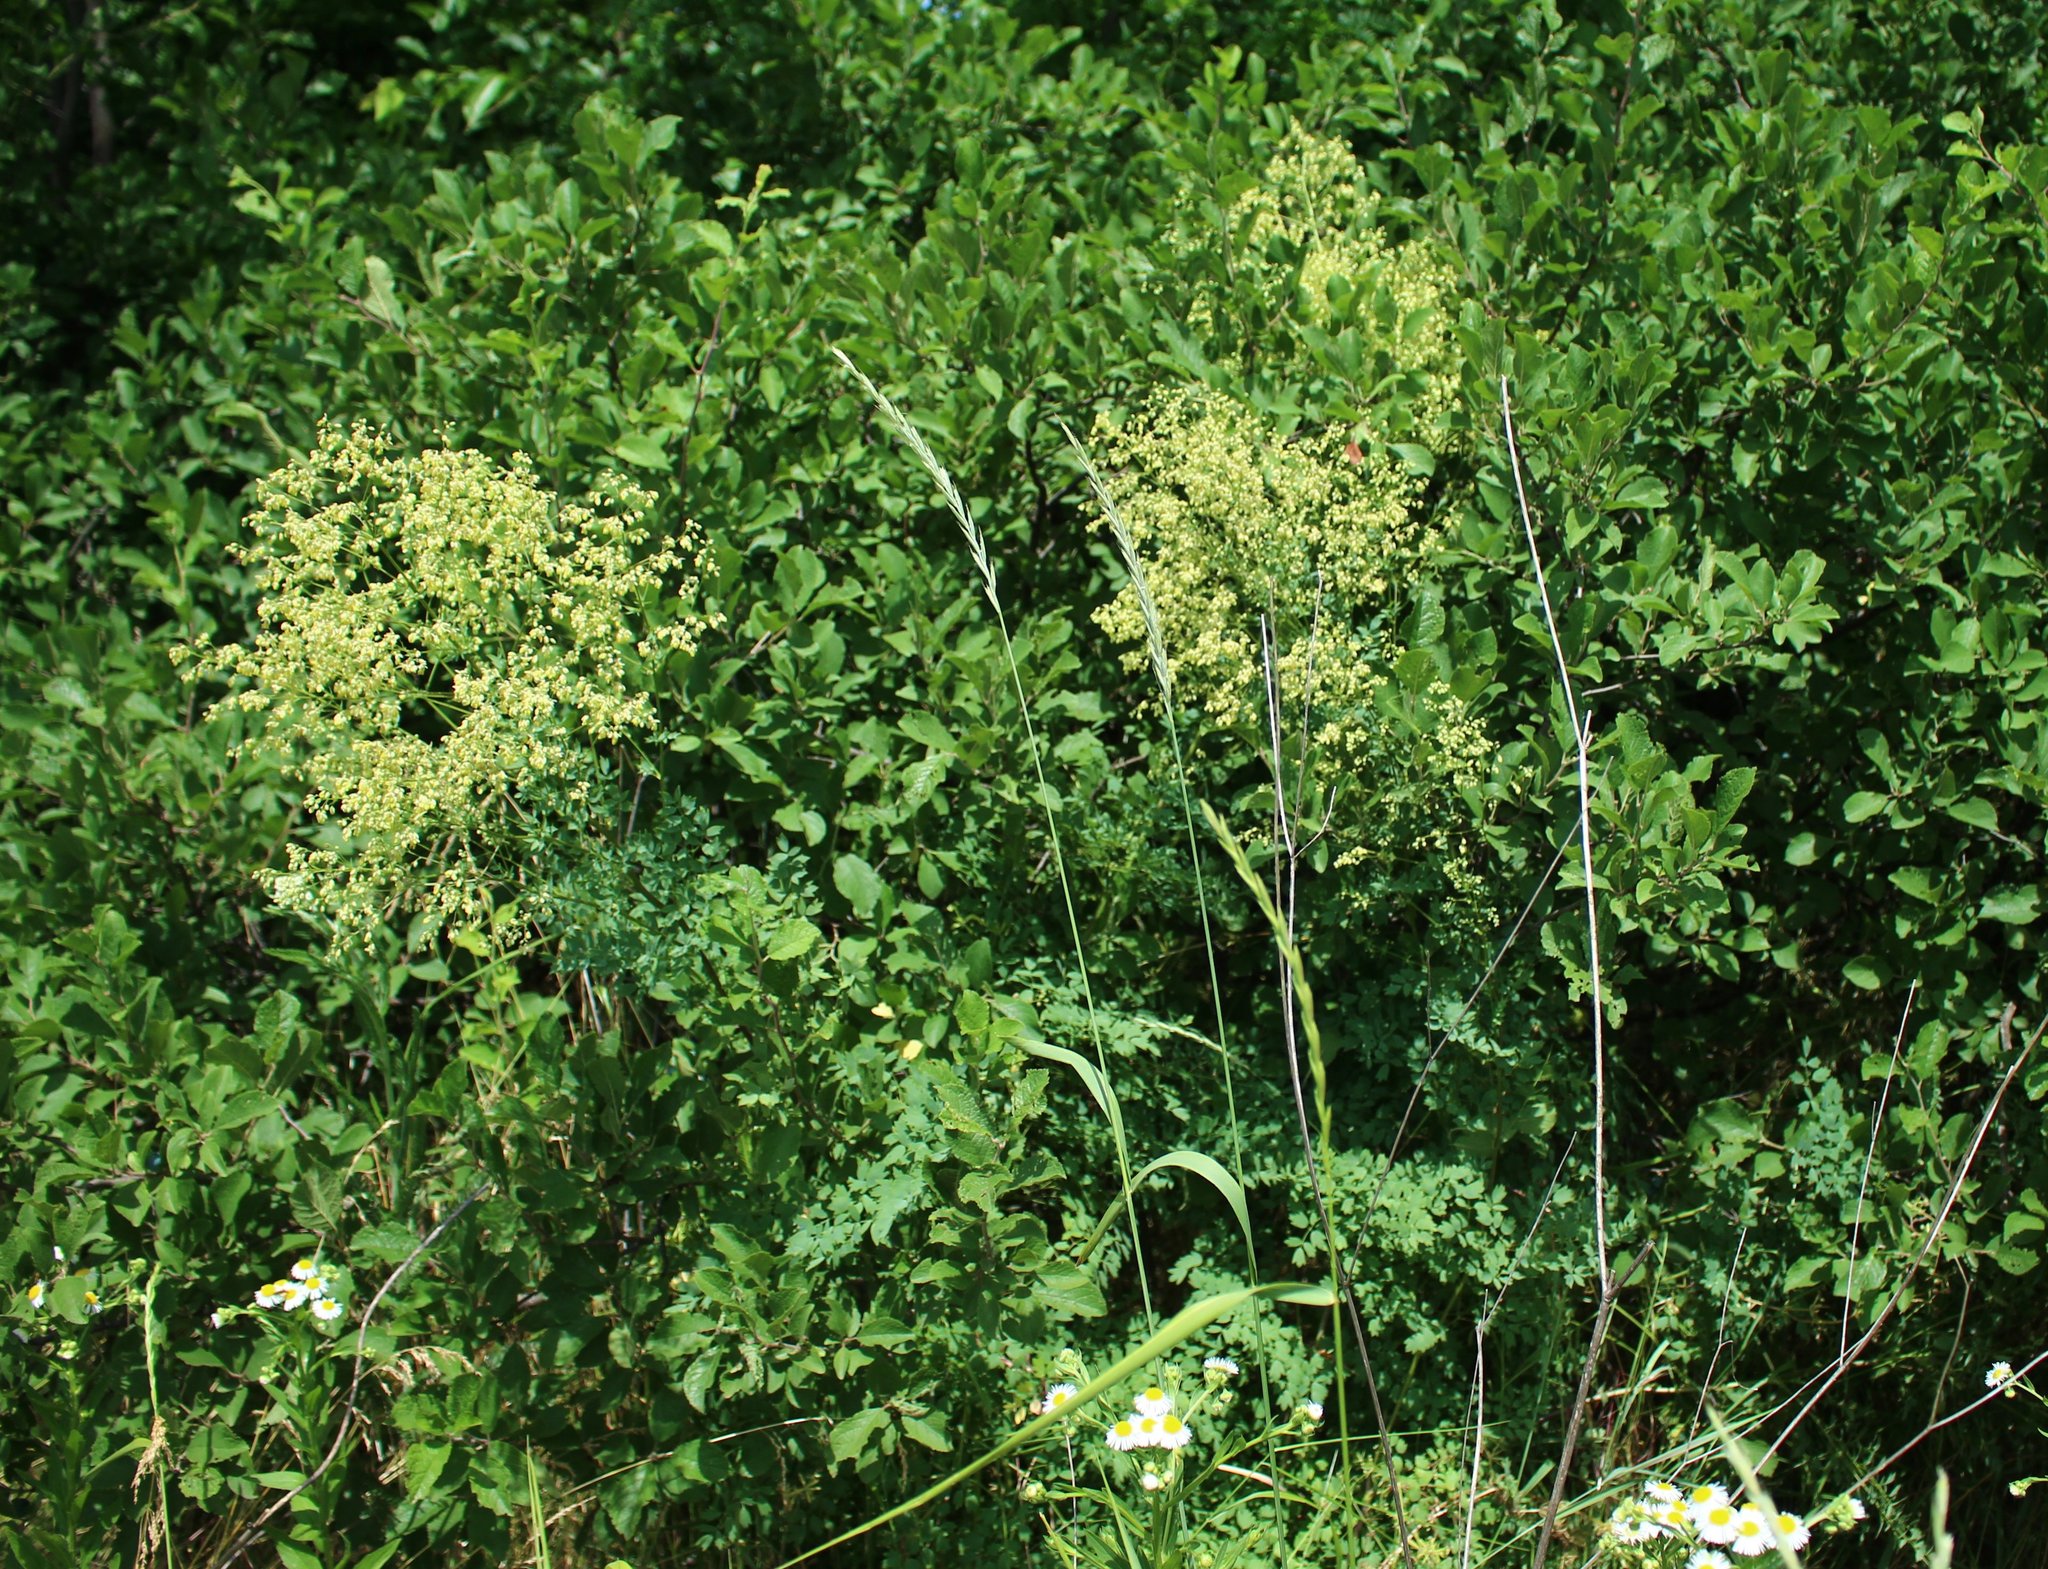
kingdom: Plantae
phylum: Tracheophyta
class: Magnoliopsida
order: Ranunculales
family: Ranunculaceae
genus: Thalictrum
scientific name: Thalictrum minus
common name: Lesser meadow-rue
